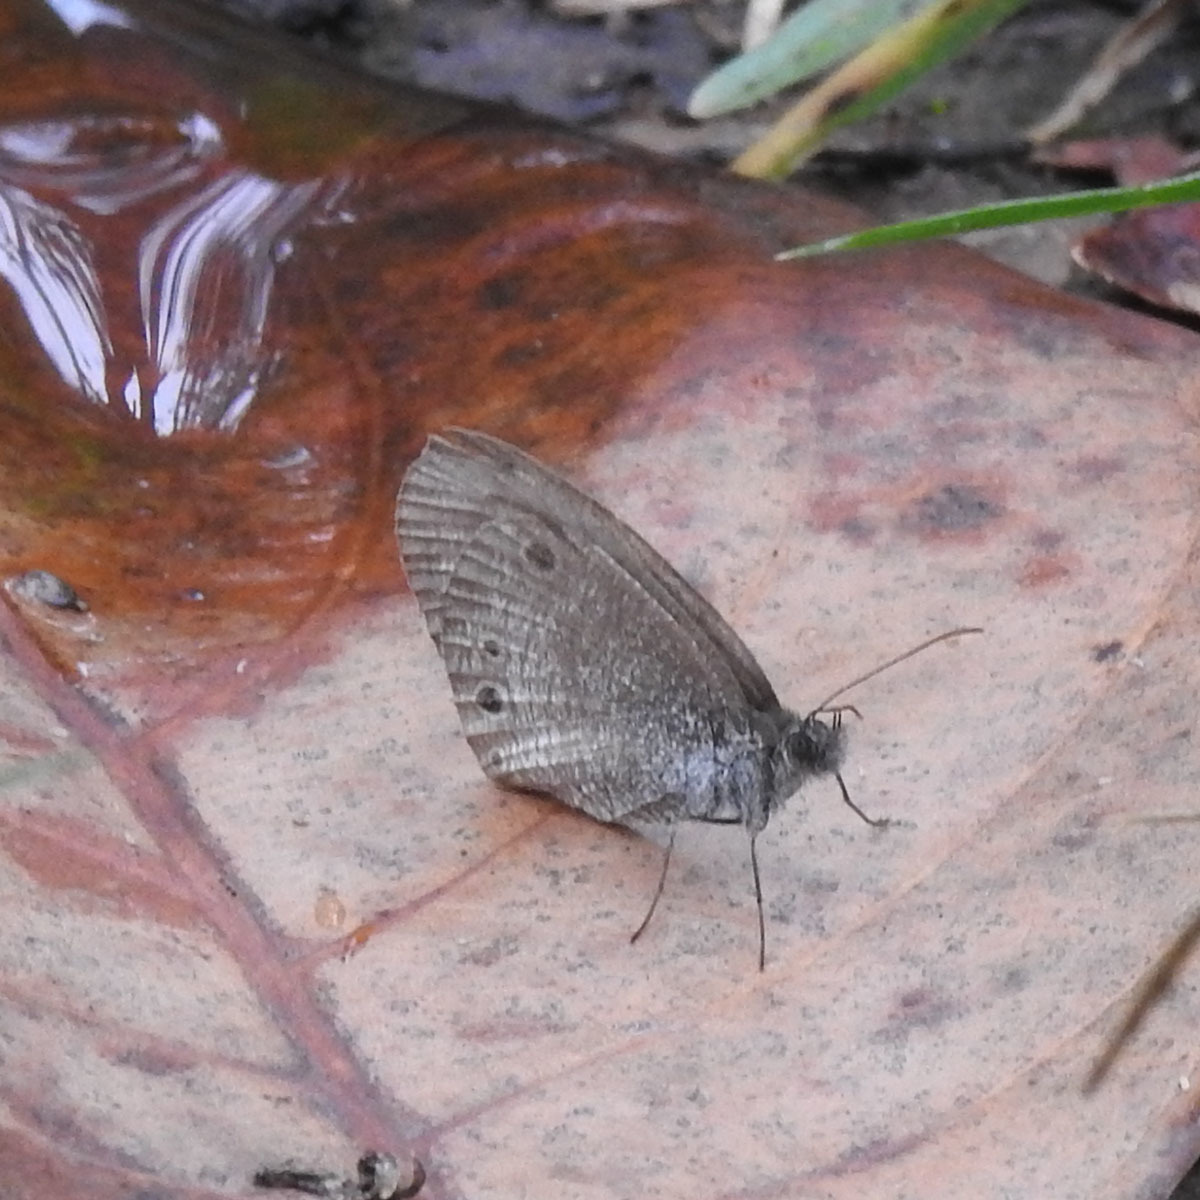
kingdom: Animalia
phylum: Arthropoda
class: Insecta
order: Lepidoptera
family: Nymphalidae
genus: Ypthima
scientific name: Ypthima huebneri
